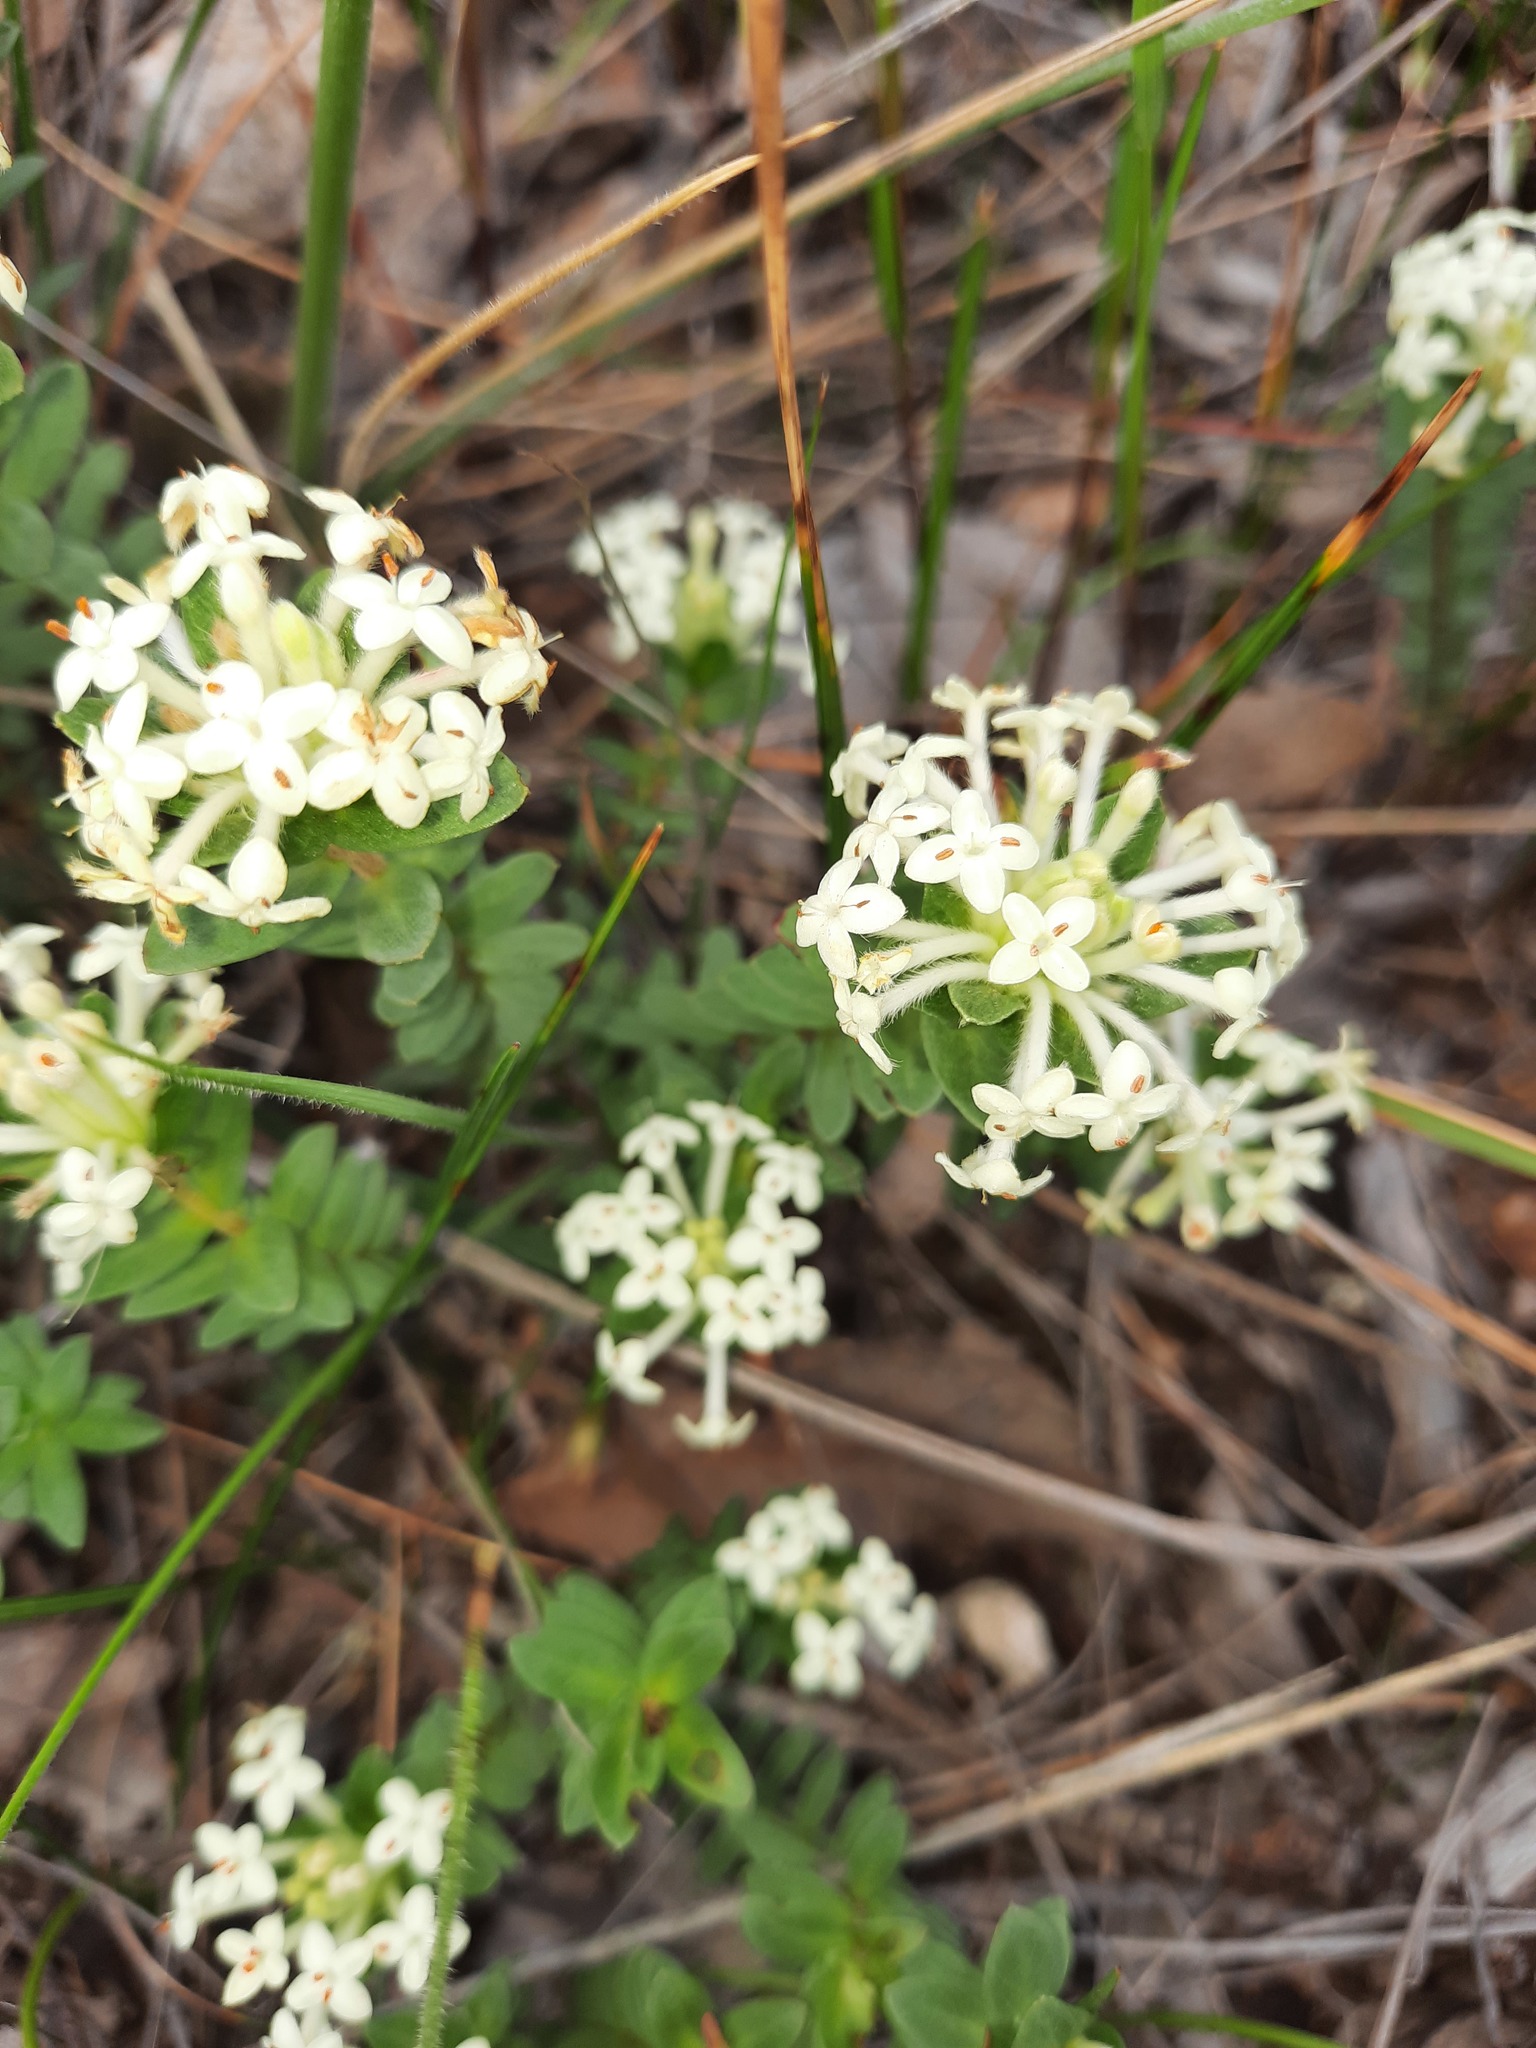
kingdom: Plantae
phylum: Tracheophyta
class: Magnoliopsida
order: Malvales
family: Thymelaeaceae
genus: Pimelea
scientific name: Pimelea humilis
